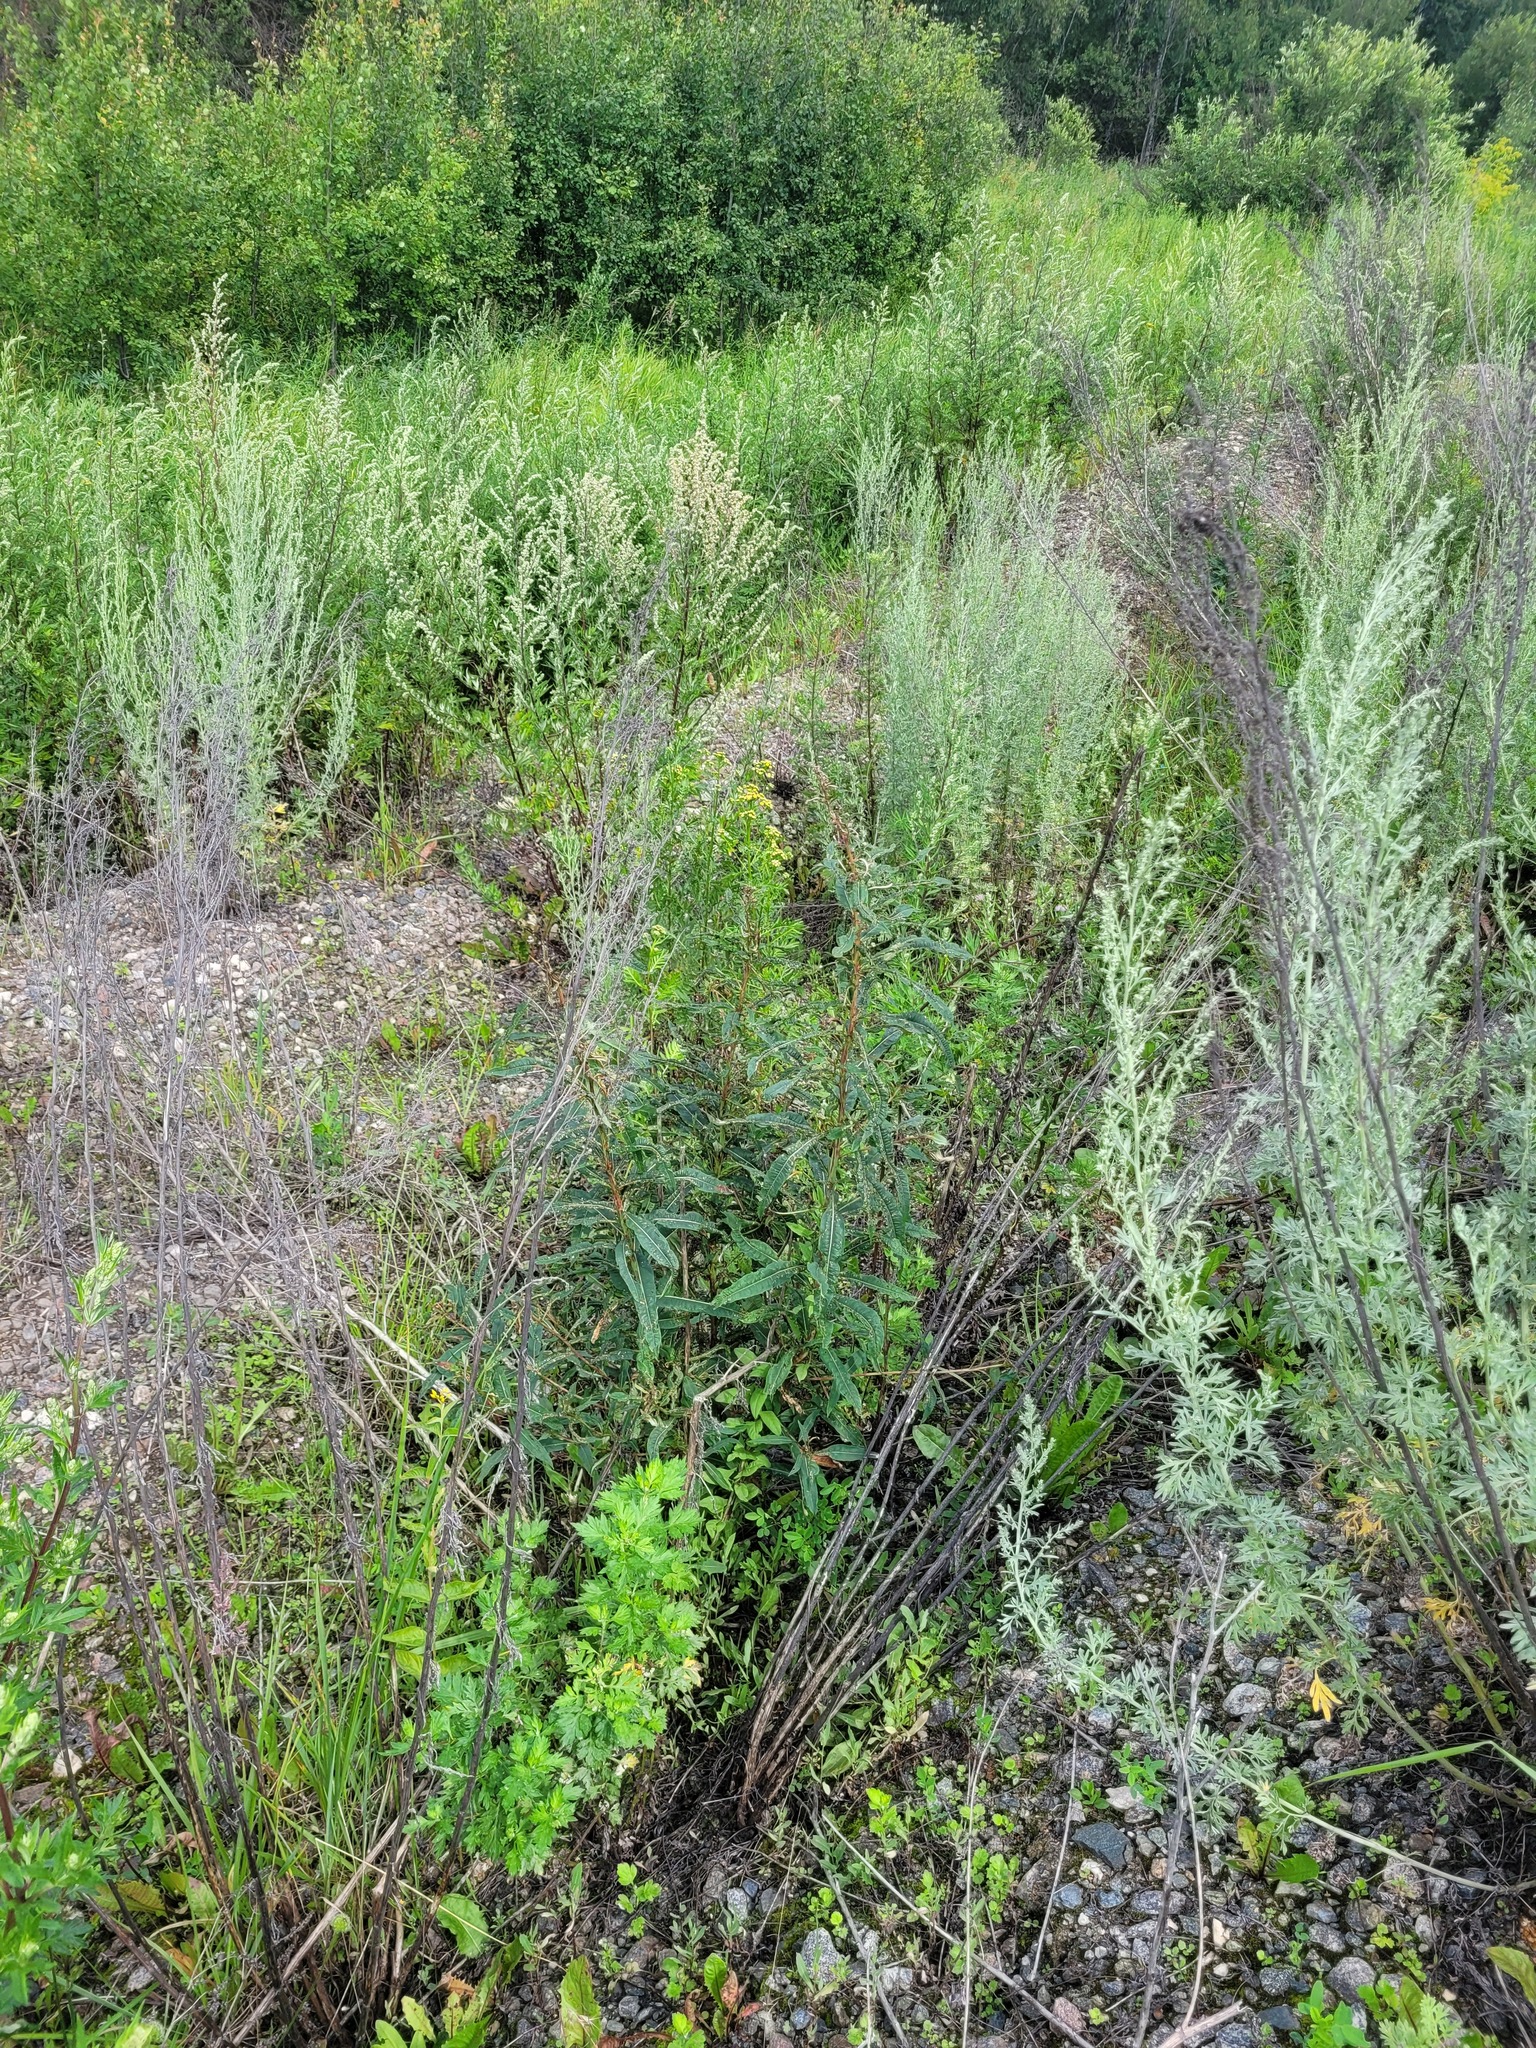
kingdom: Plantae
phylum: Tracheophyta
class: Magnoliopsida
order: Myrtales
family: Onagraceae
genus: Chamaenerion
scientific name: Chamaenerion angustifolium
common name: Fireweed
